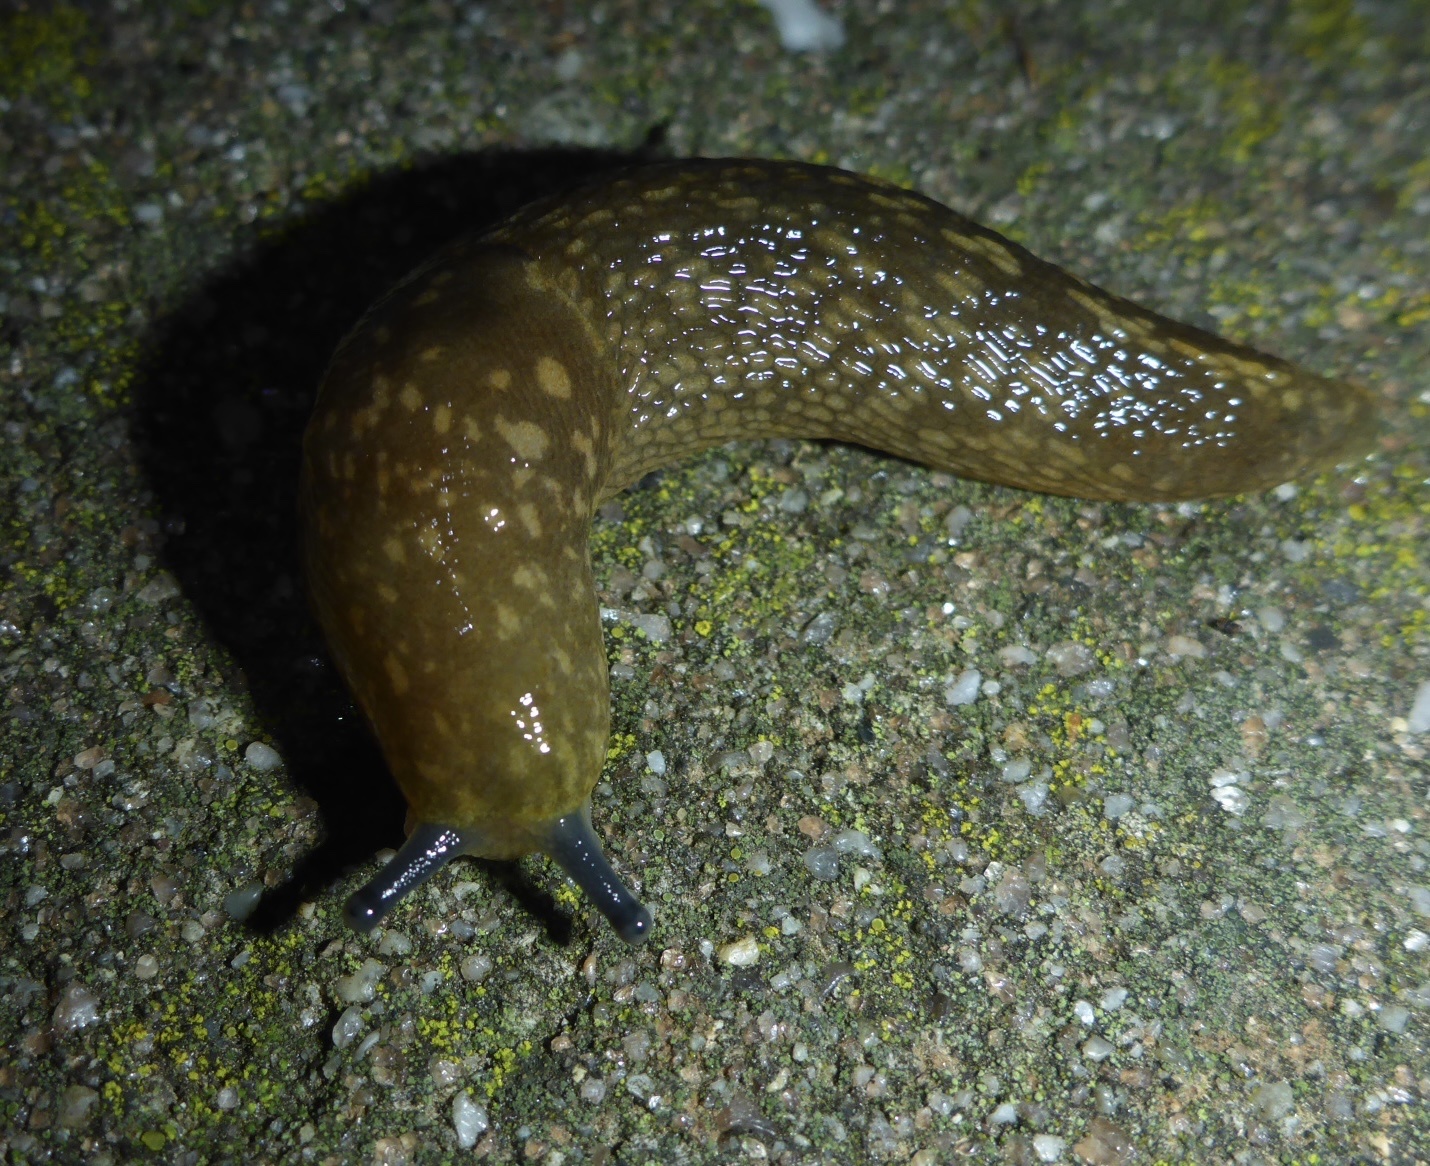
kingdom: Animalia
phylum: Mollusca
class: Gastropoda
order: Stylommatophora
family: Limacidae
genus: Limacus
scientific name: Limacus flavus
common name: Yellow gardenslug
